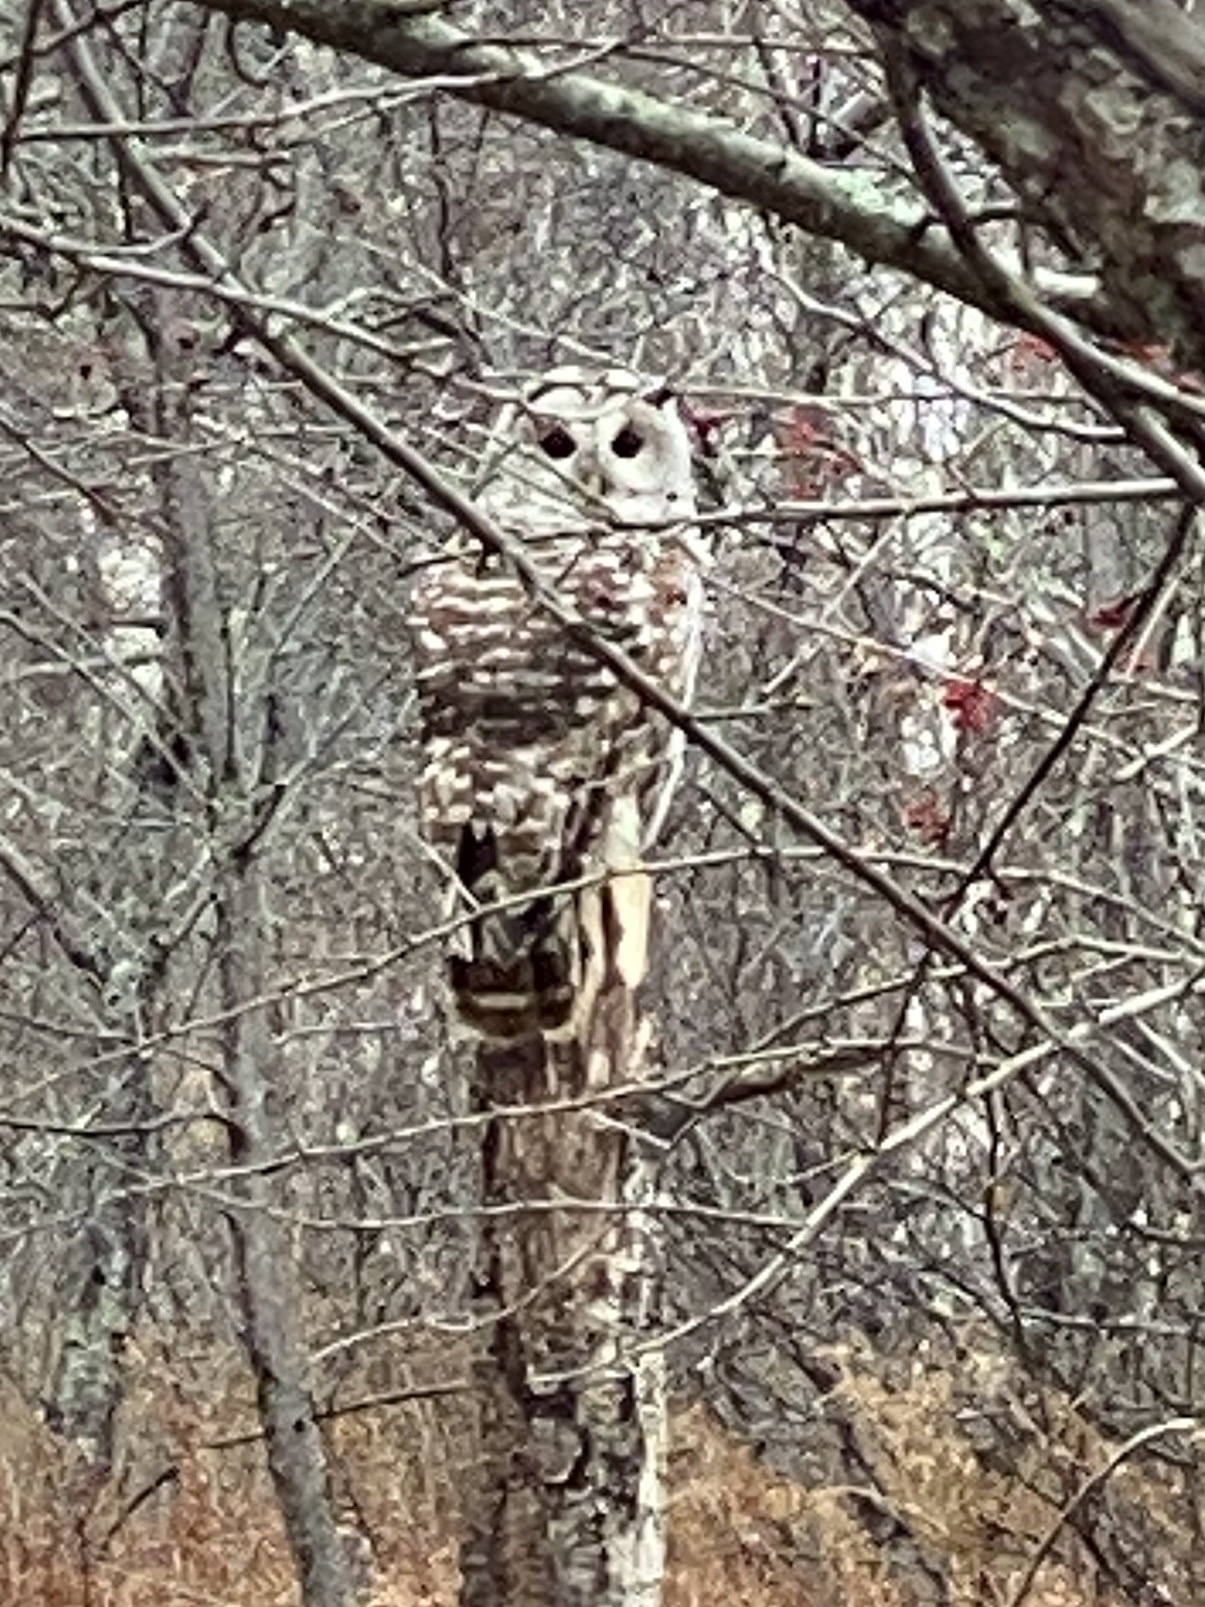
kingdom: Animalia
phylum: Chordata
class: Aves
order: Strigiformes
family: Strigidae
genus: Strix
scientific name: Strix varia
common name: Barred owl
